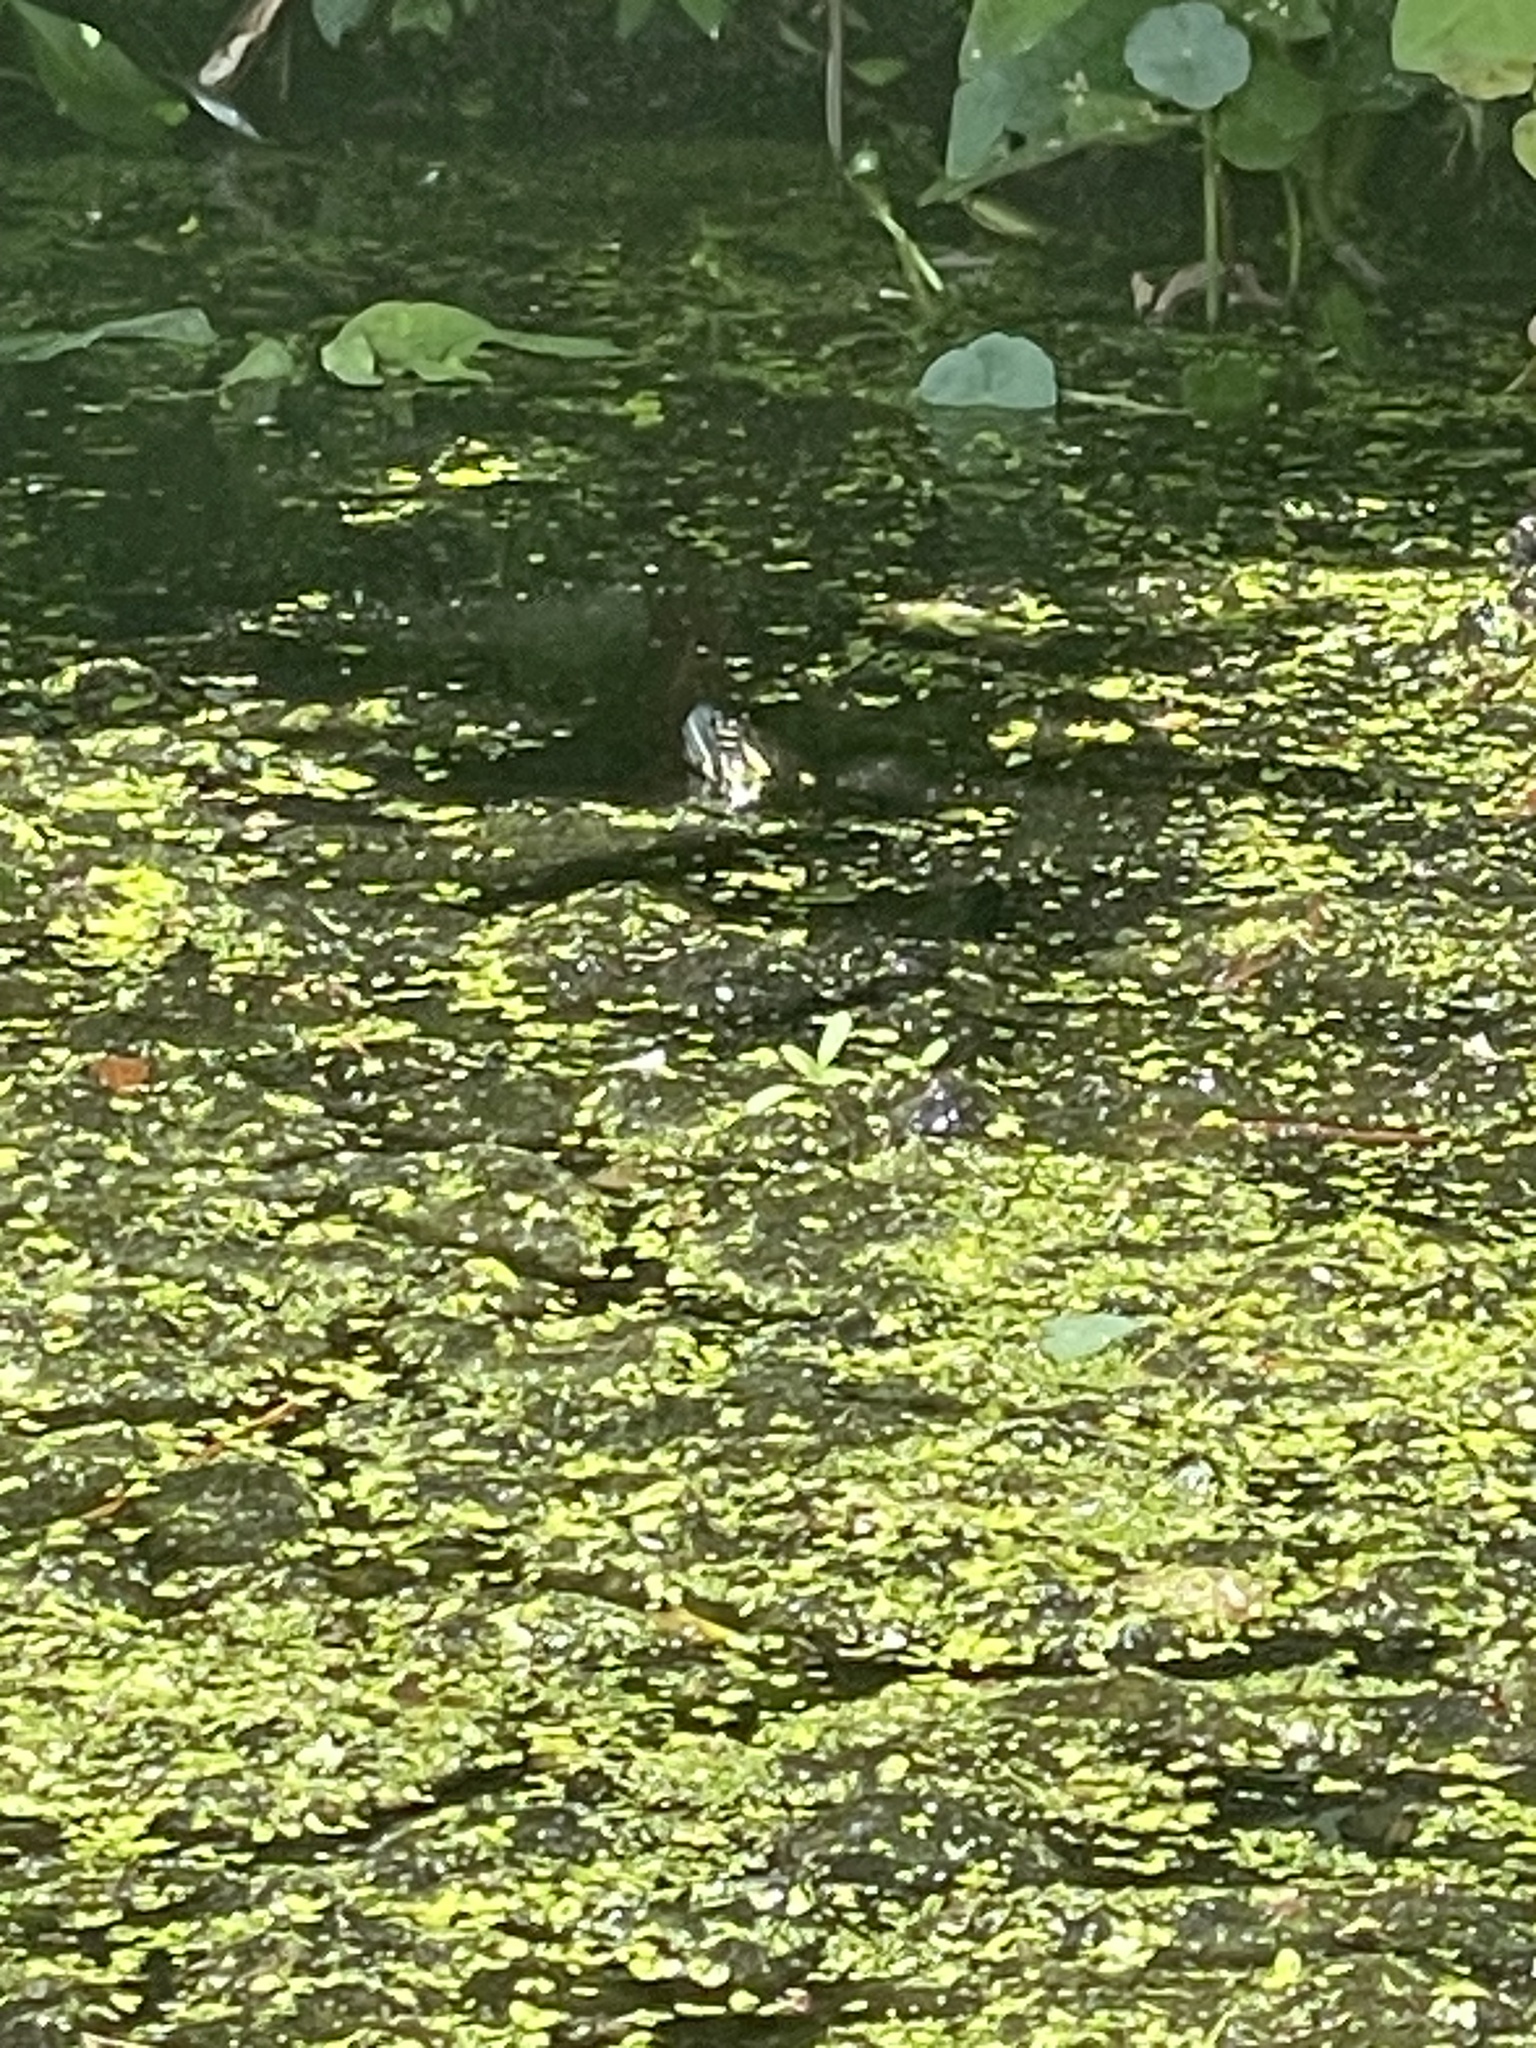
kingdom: Animalia
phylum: Chordata
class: Testudines
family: Emydidae
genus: Chrysemys
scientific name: Chrysemys picta
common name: Painted turtle
